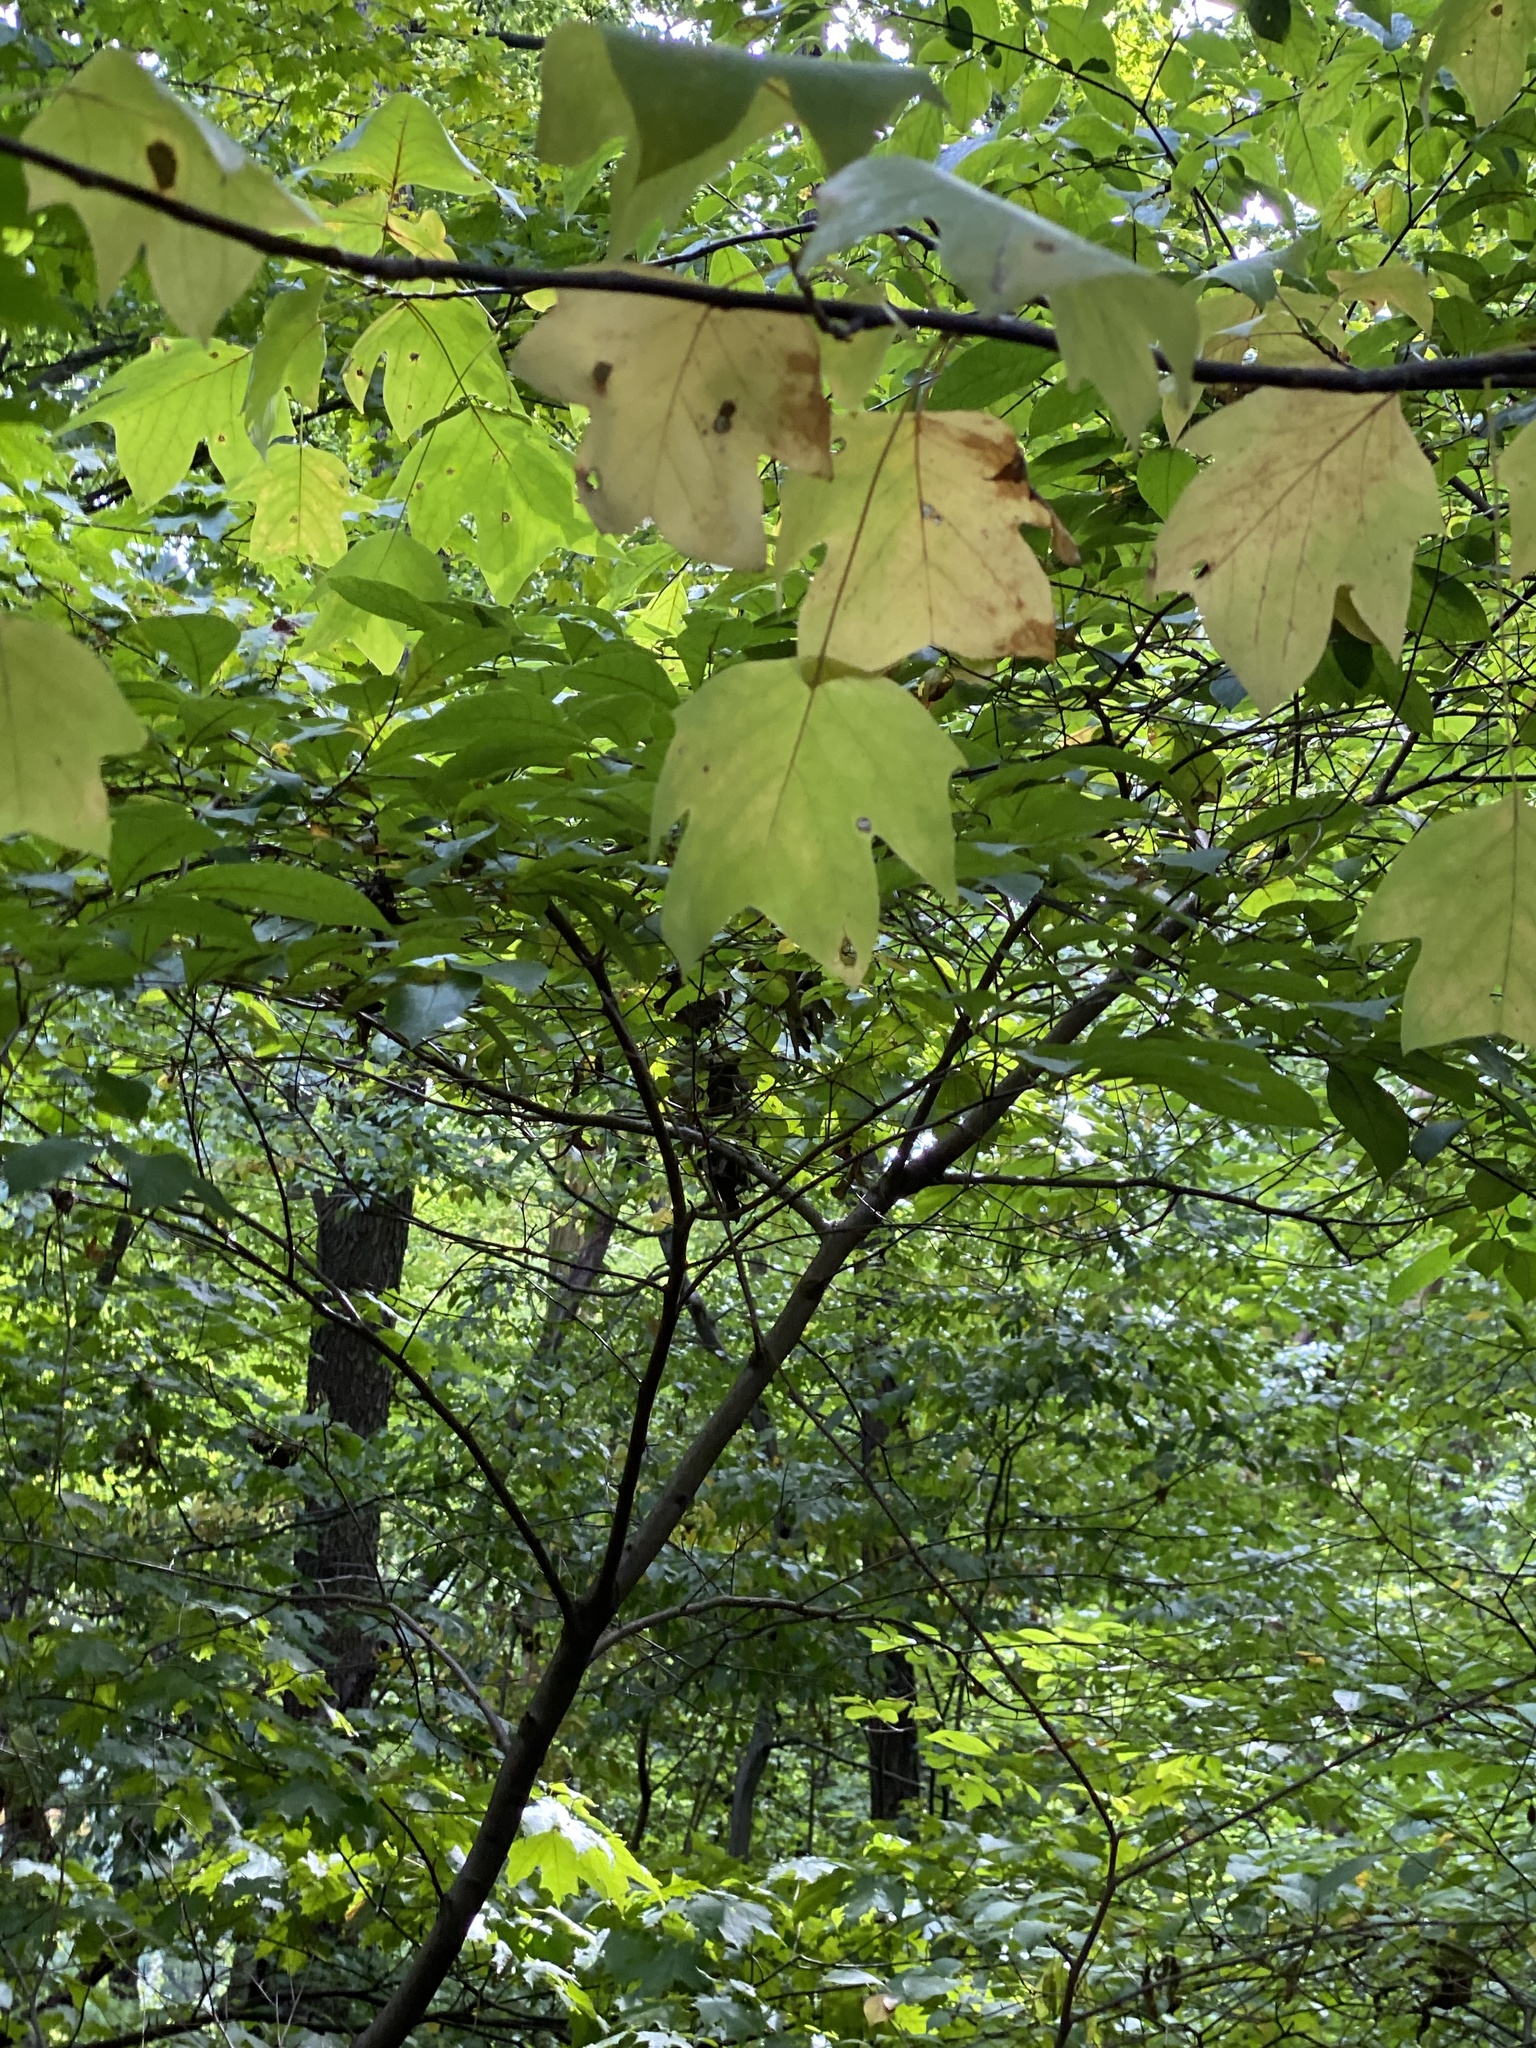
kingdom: Plantae
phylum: Tracheophyta
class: Magnoliopsida
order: Magnoliales
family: Magnoliaceae
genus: Liriodendron
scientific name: Liriodendron tulipifera
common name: Tulip tree
